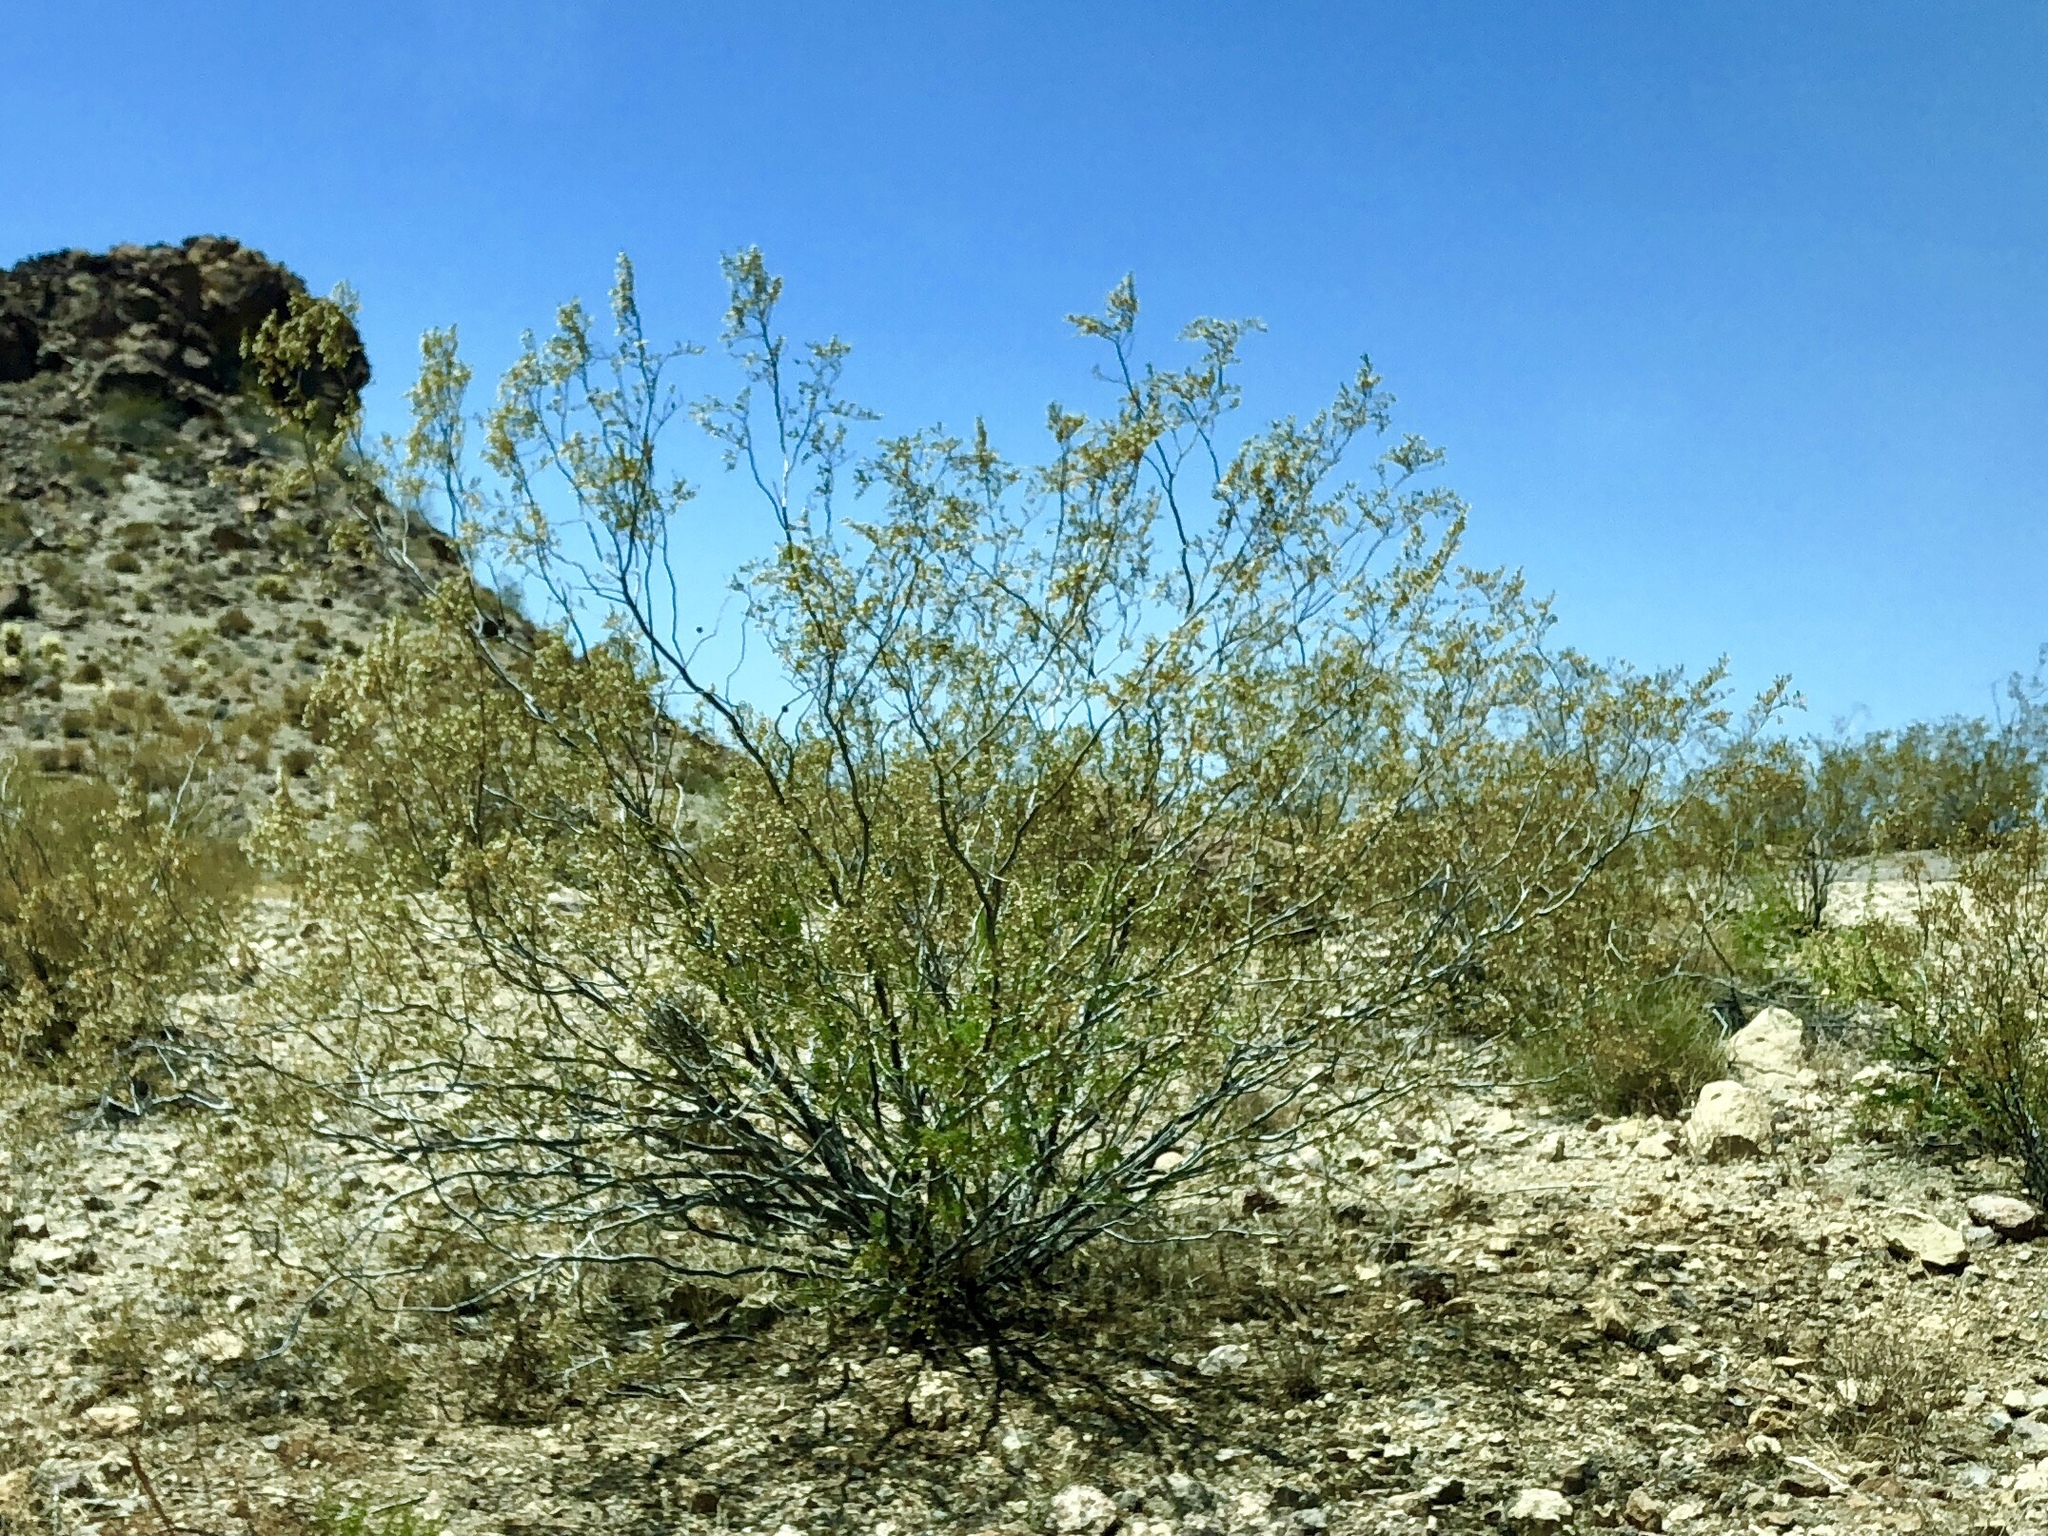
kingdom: Plantae
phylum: Tracheophyta
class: Magnoliopsida
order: Zygophyllales
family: Zygophyllaceae
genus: Larrea
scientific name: Larrea tridentata
